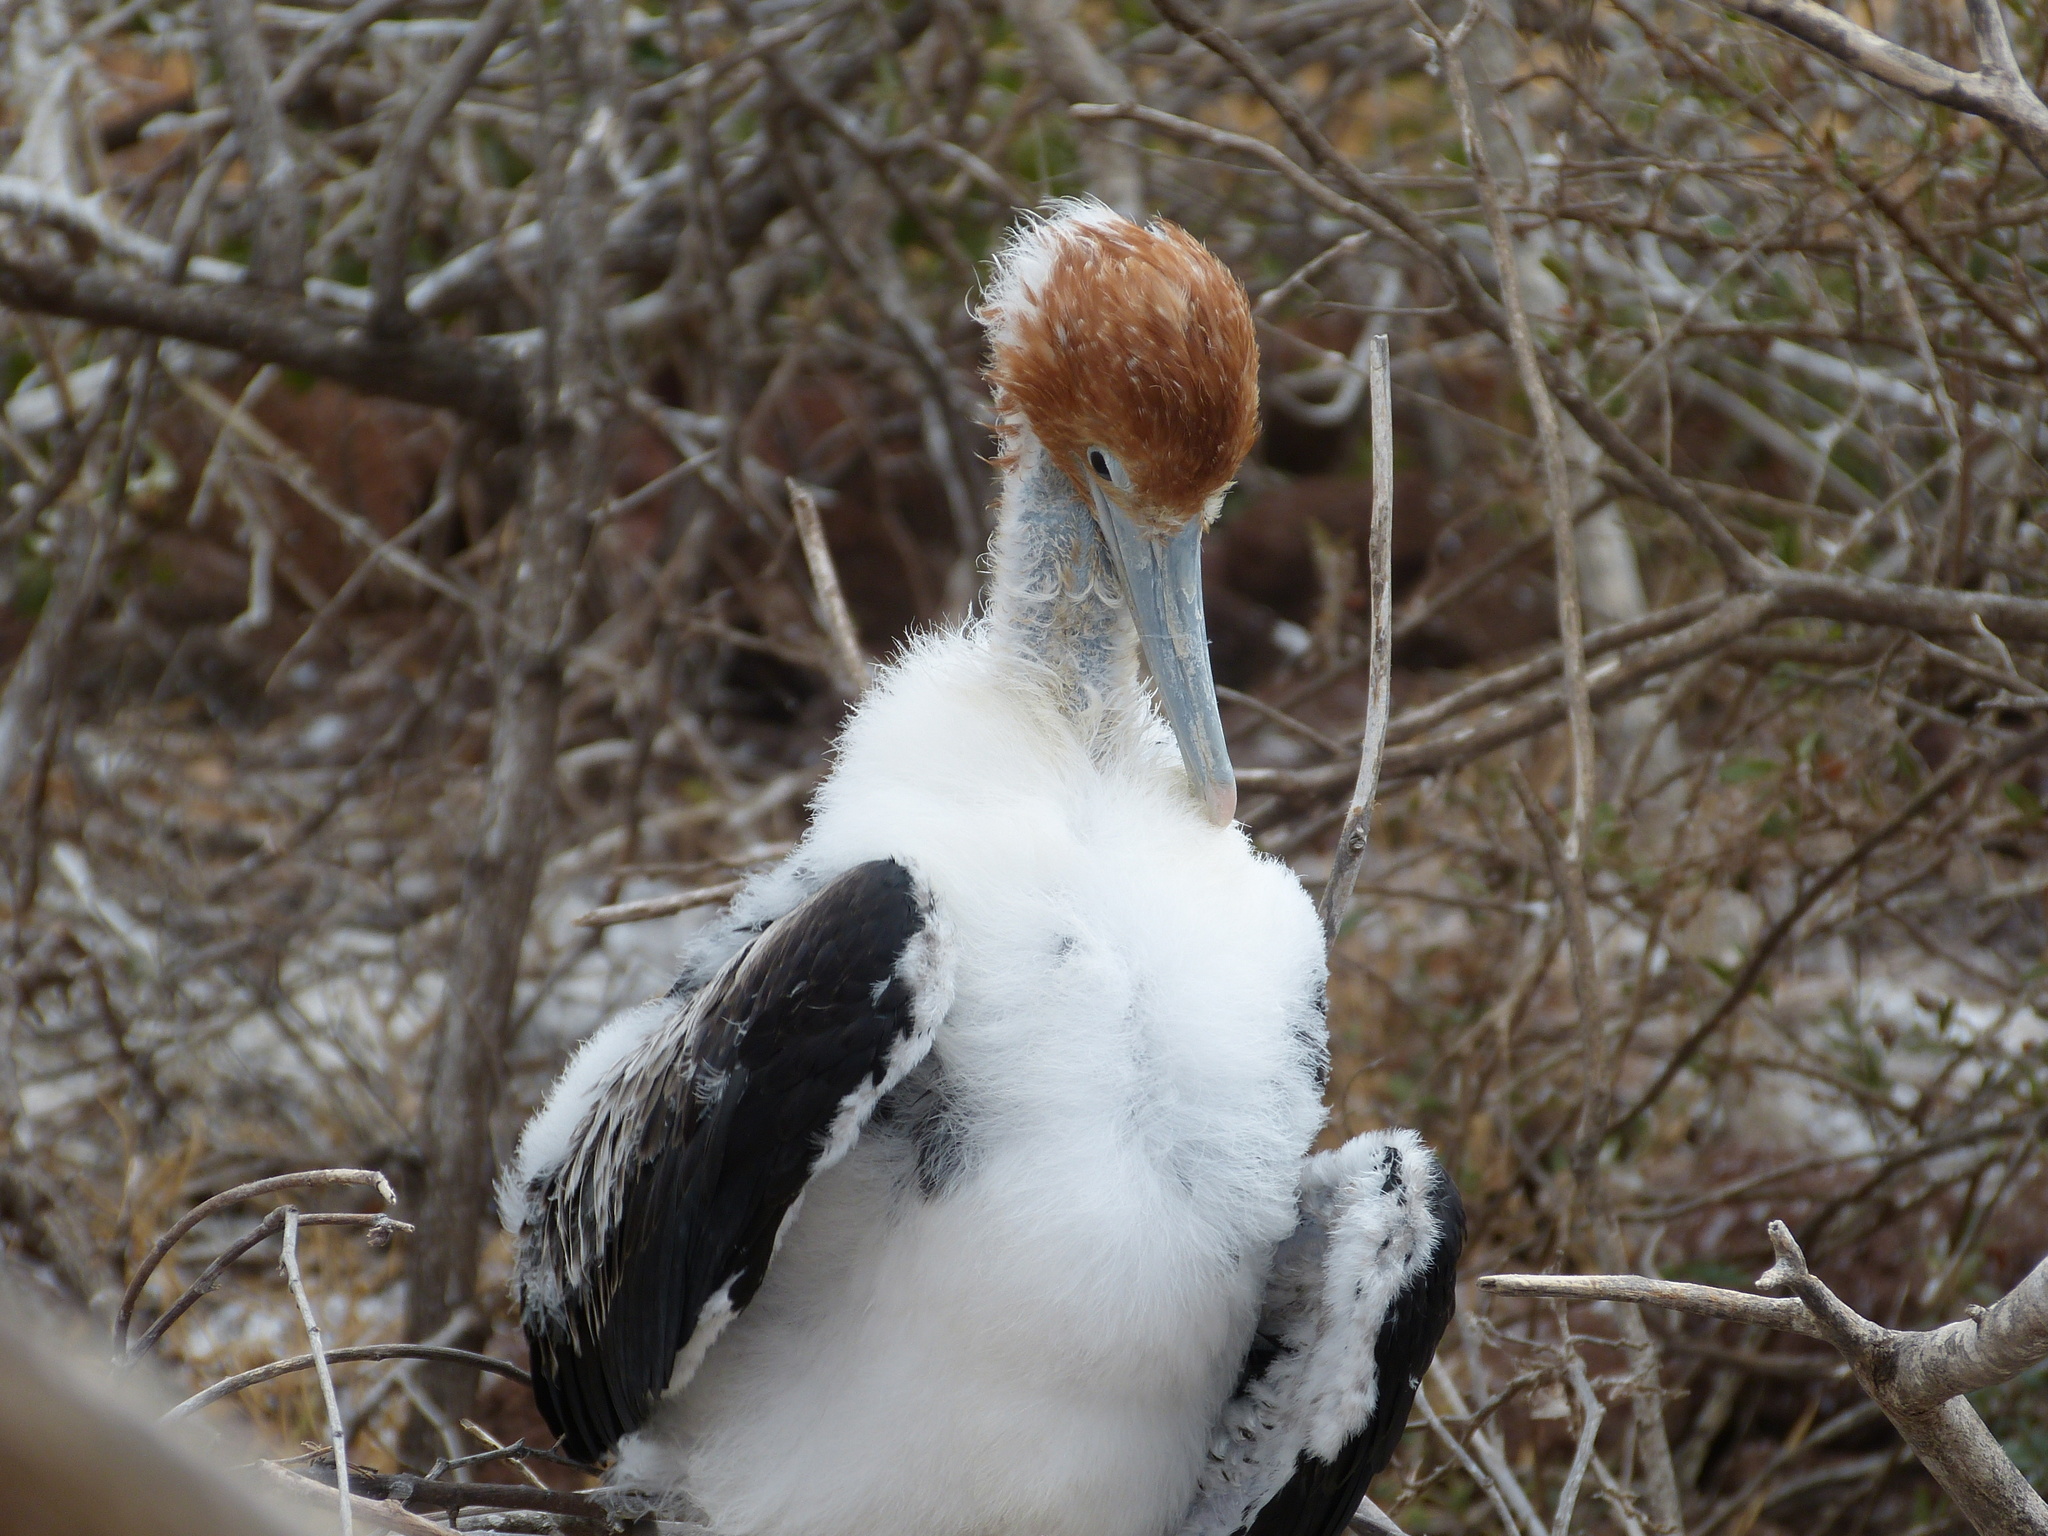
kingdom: Animalia
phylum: Chordata
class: Aves
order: Suliformes
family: Fregatidae
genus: Fregata
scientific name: Fregata minor
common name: Great frigatebird
